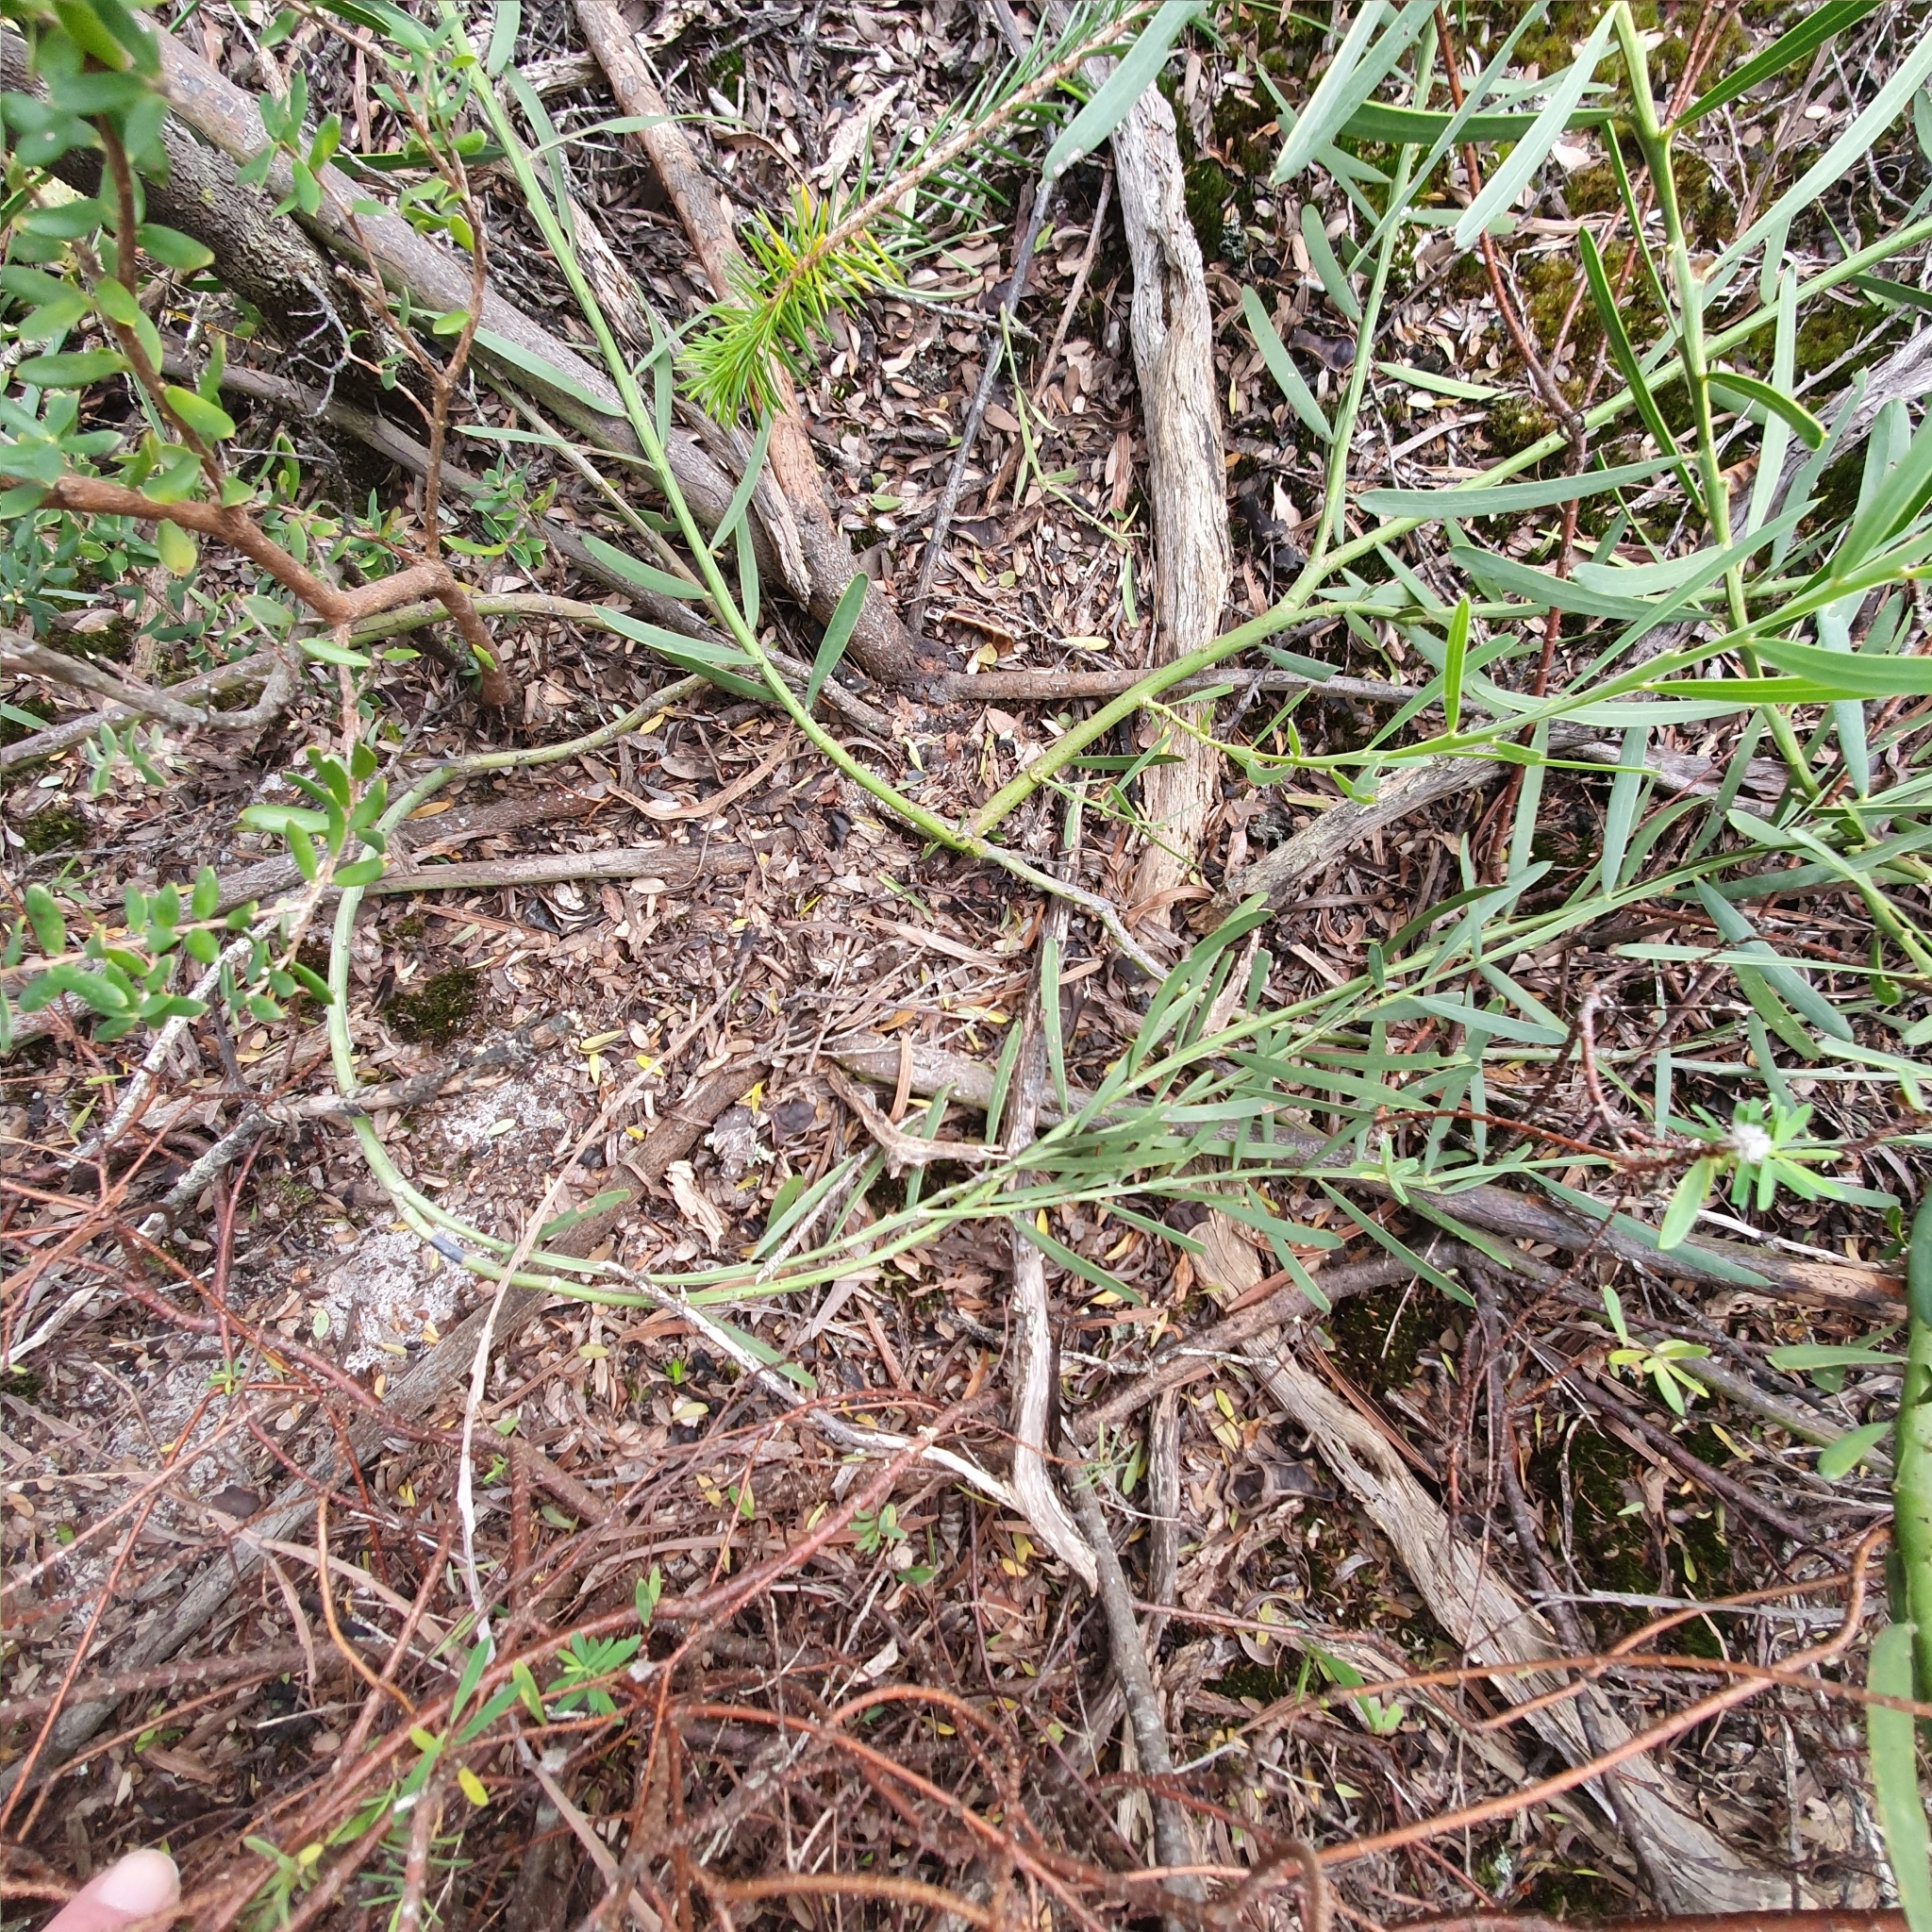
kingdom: Plantae
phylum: Tracheophyta
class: Magnoliopsida
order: Fabales
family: Fabaceae
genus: Acacia
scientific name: Acacia suaveolens
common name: Sweet acacia
